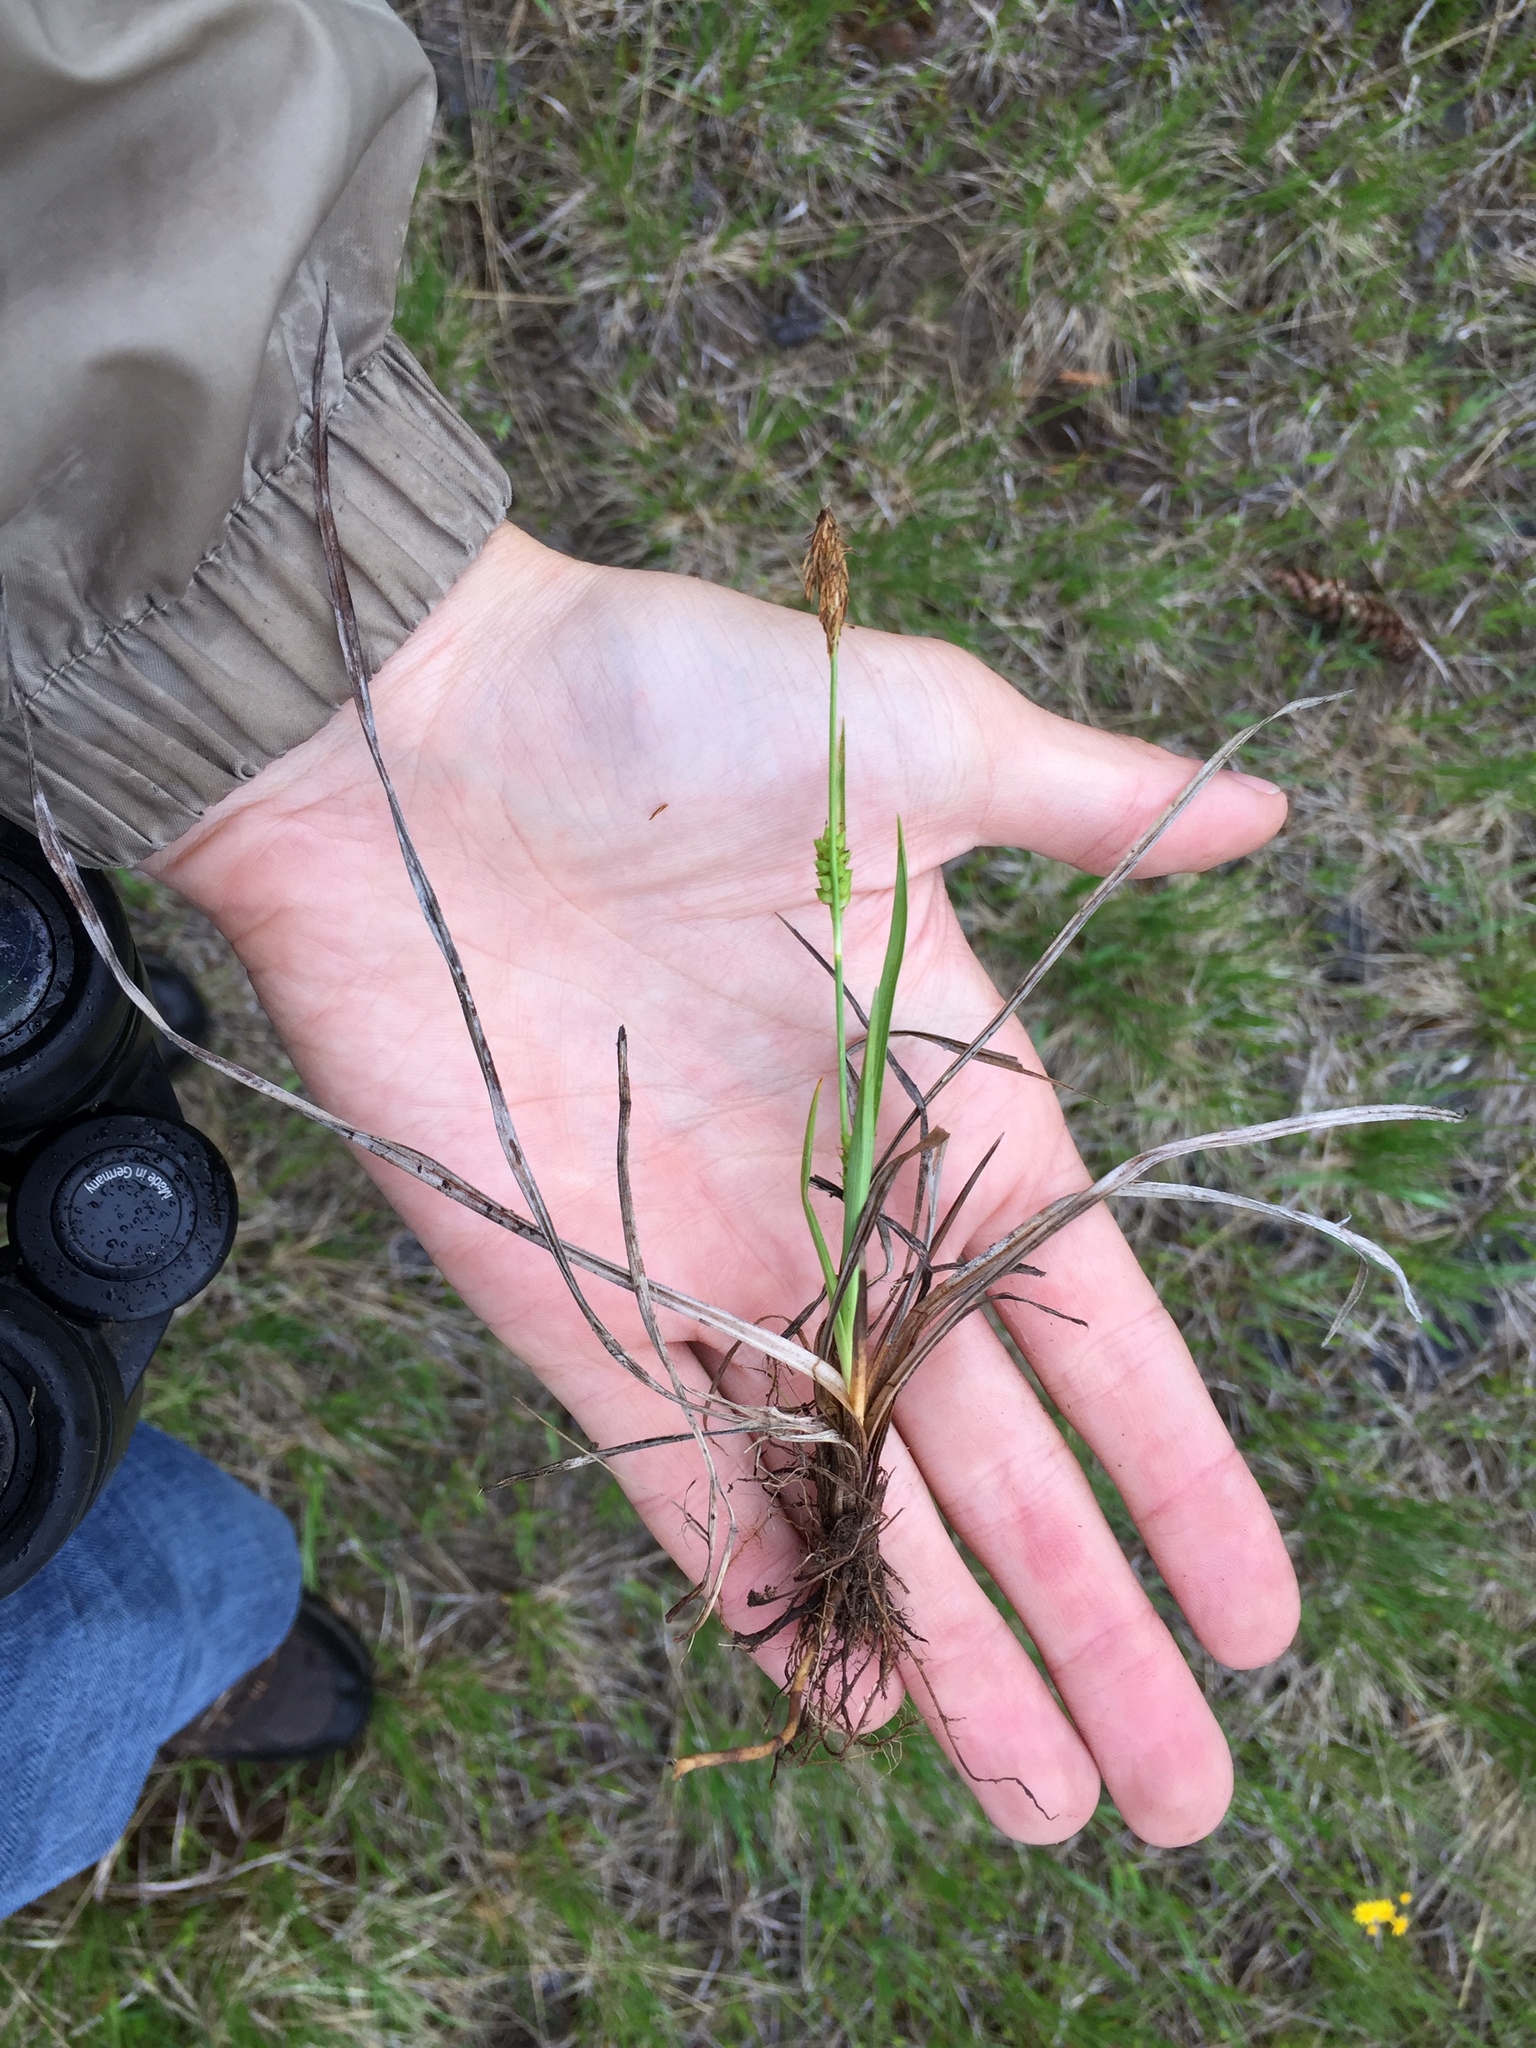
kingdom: Plantae
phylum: Tracheophyta
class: Liliopsida
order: Poales
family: Cyperaceae
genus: Carex
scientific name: Carex crawei
